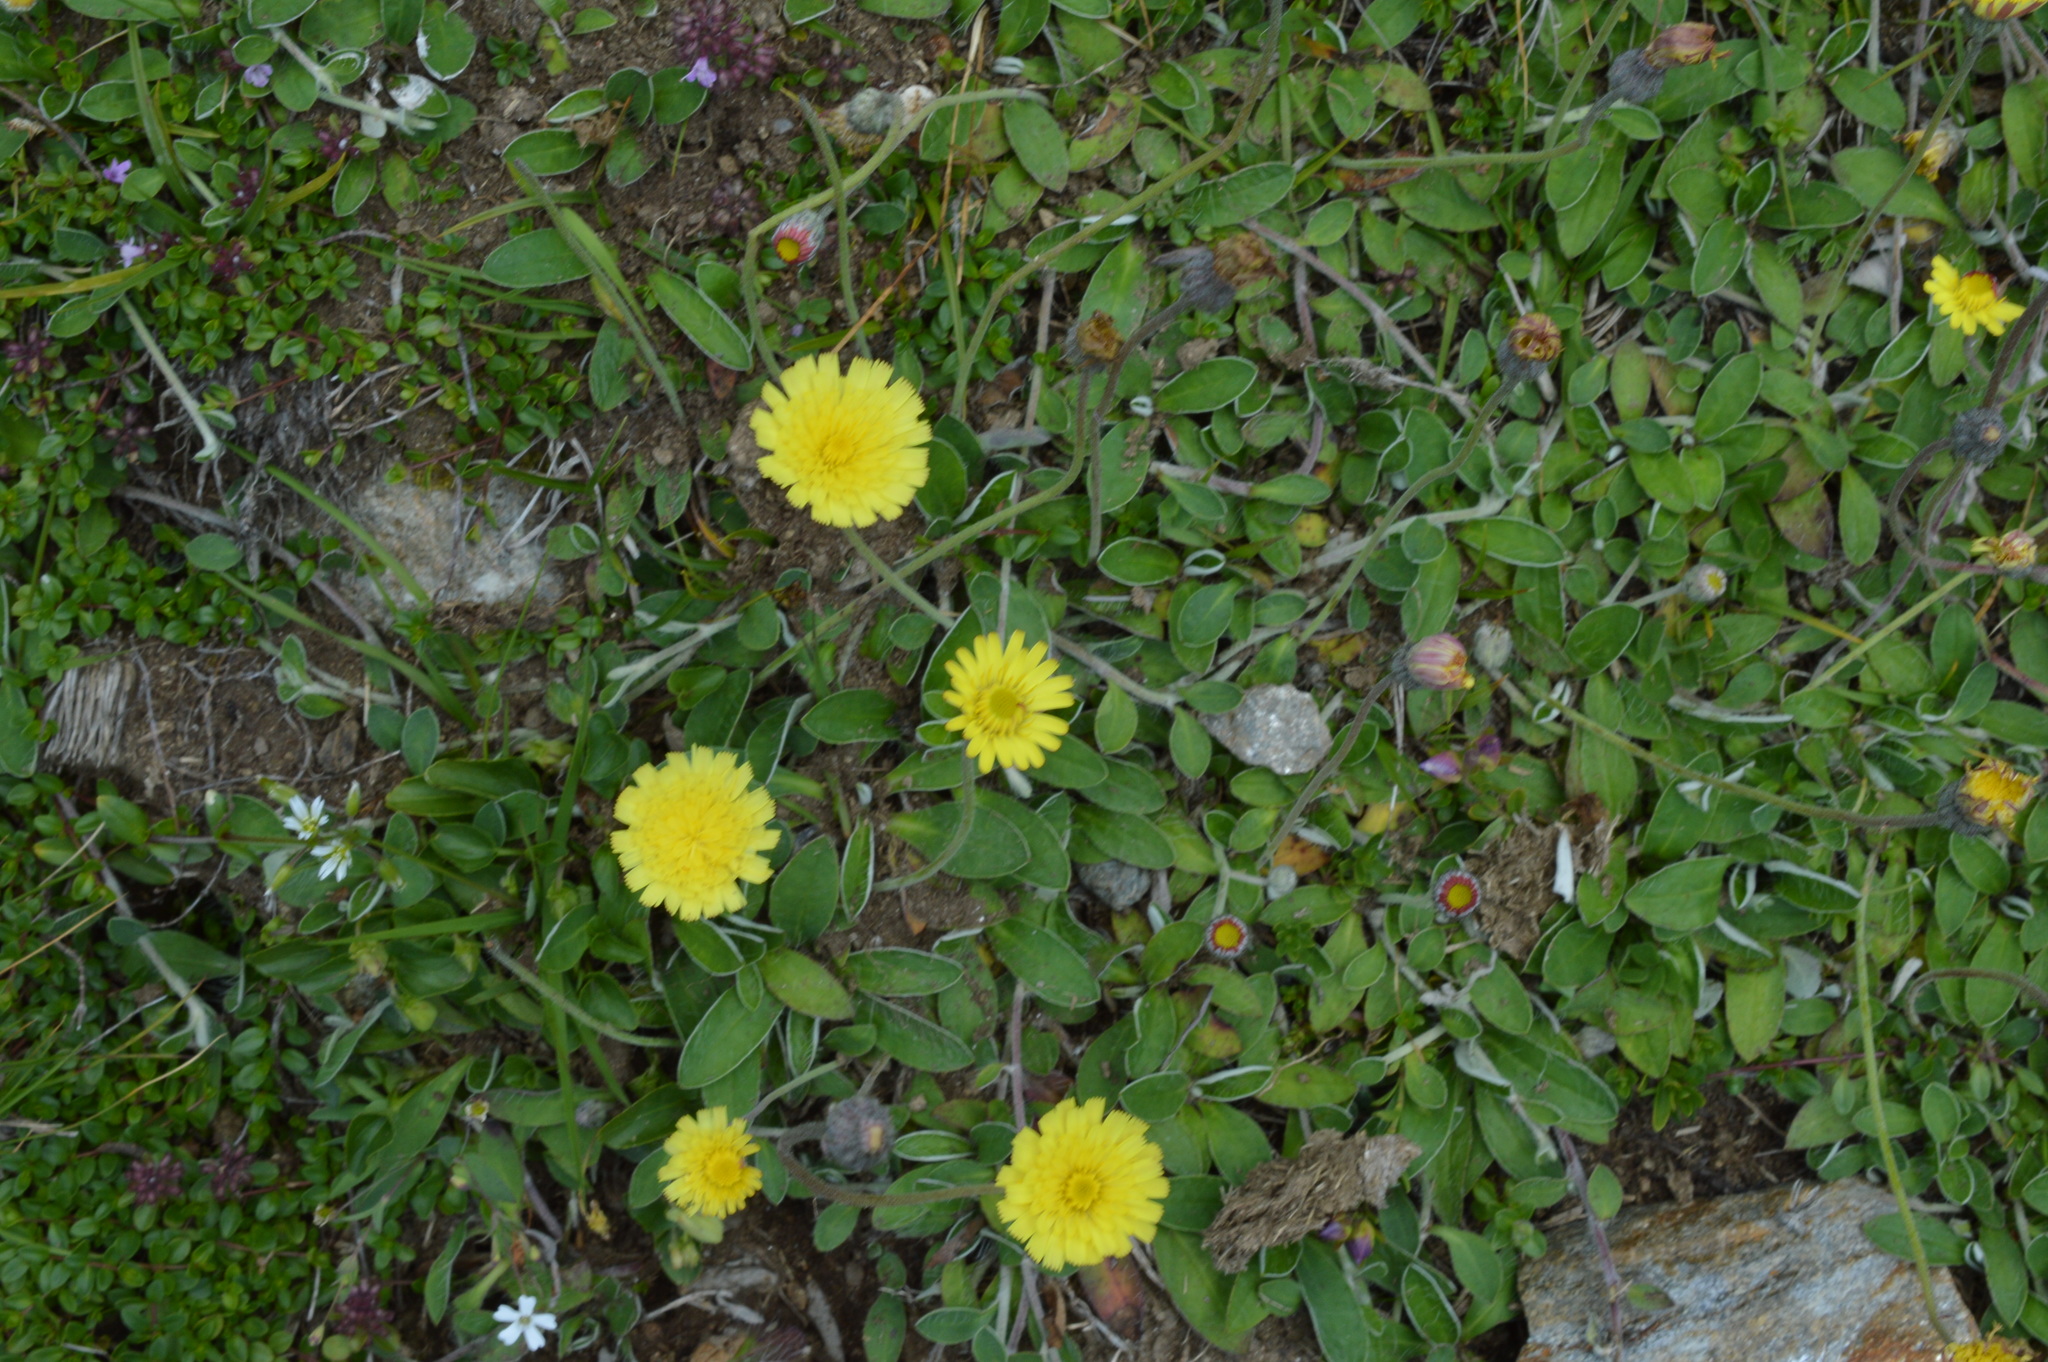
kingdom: Plantae
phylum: Tracheophyta
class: Magnoliopsida
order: Asterales
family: Asteraceae
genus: Pilosella
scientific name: Pilosella officinarum
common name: Mouse-ear hawkweed
